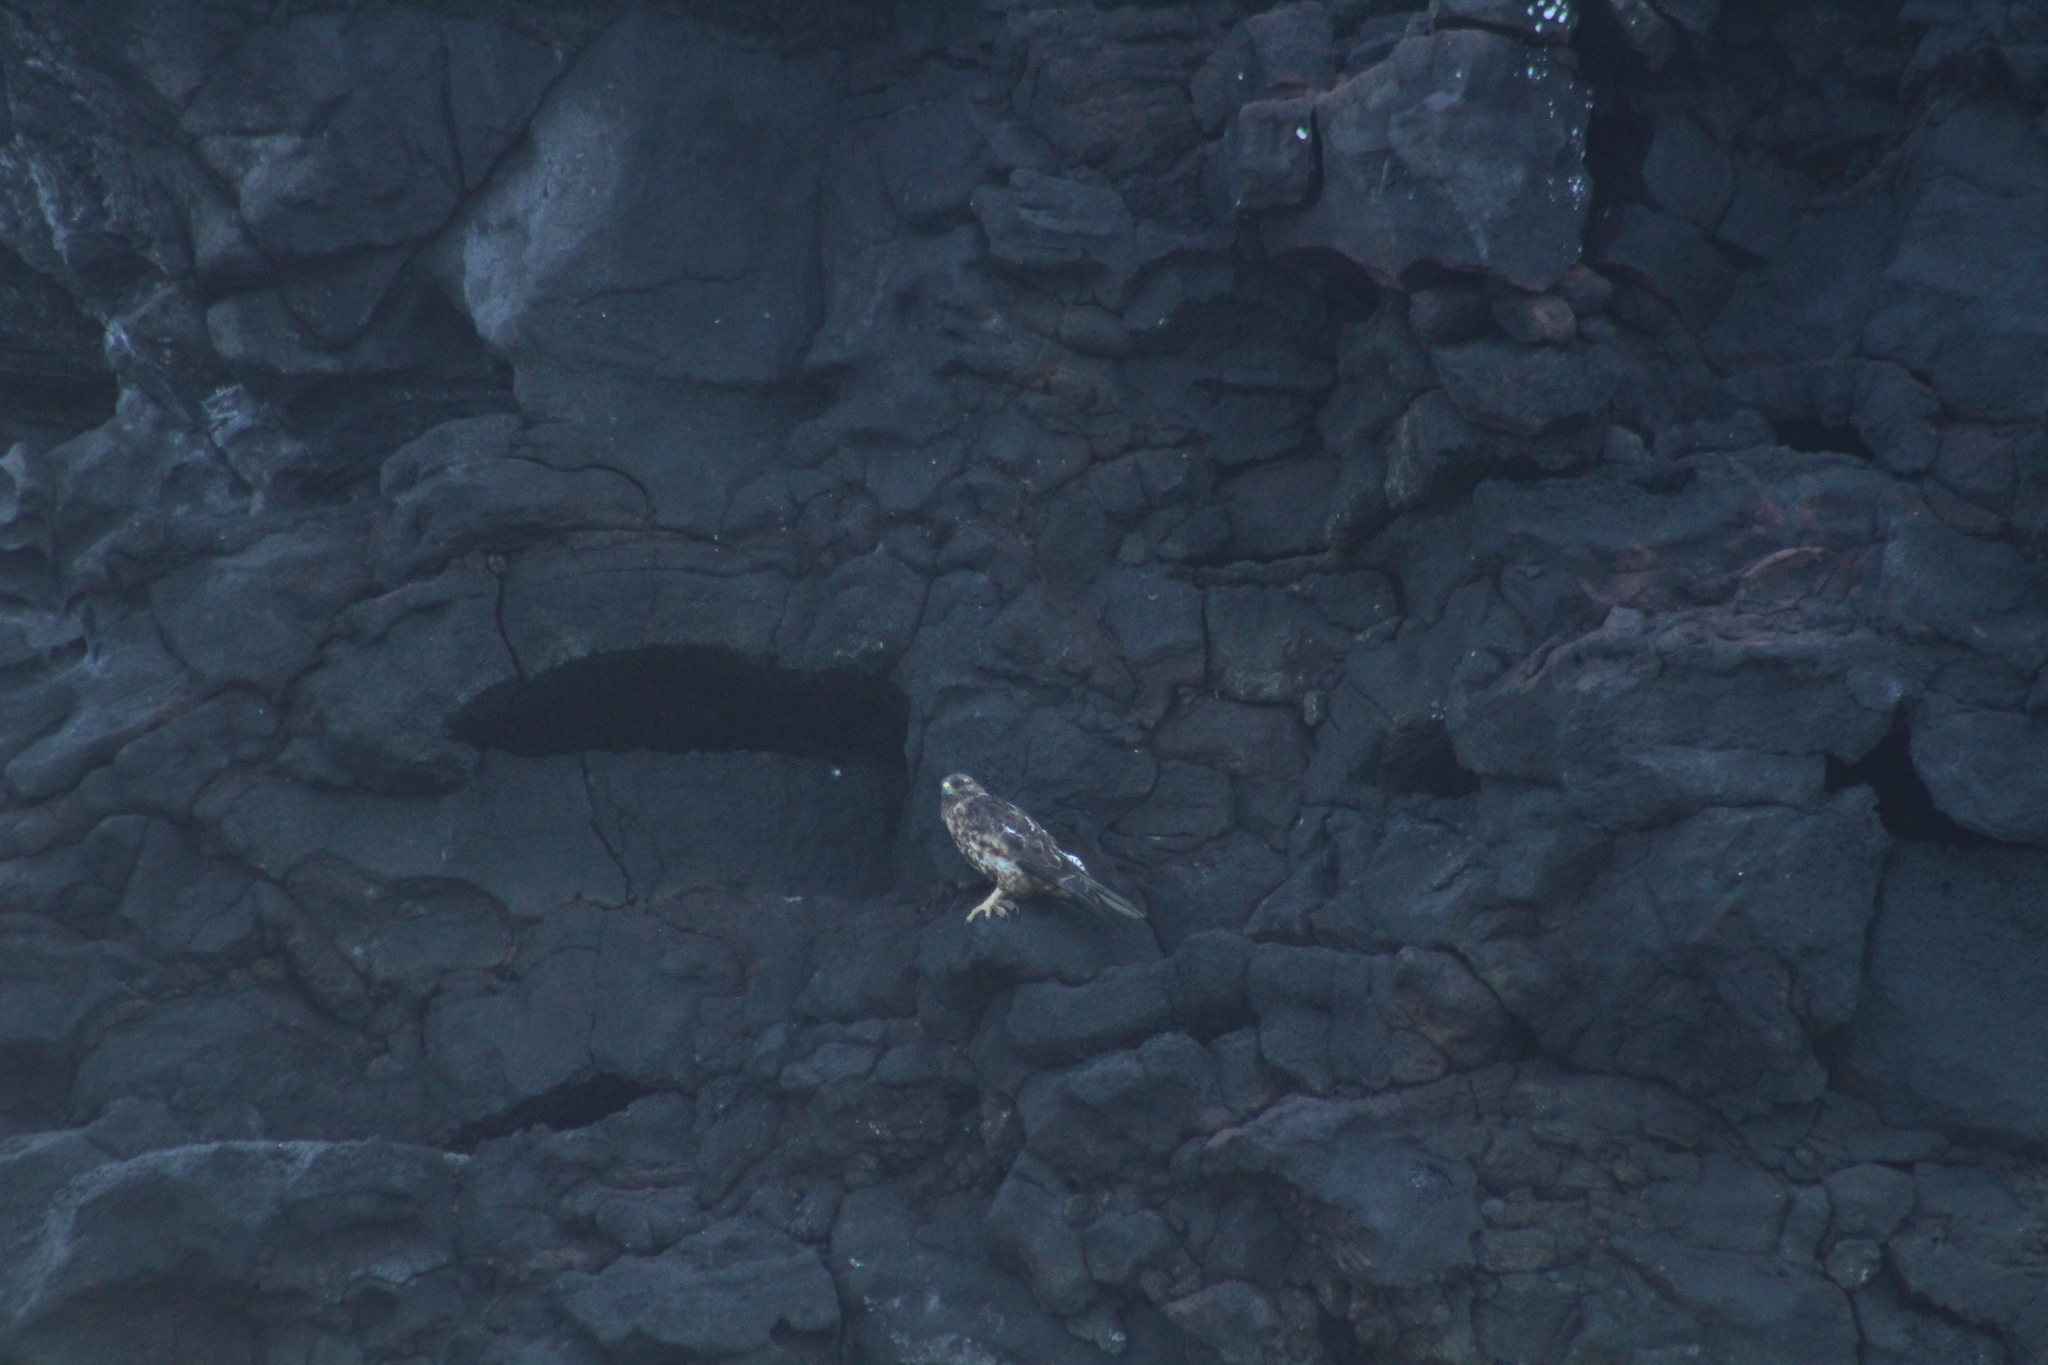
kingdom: Animalia
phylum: Chordata
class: Aves
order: Accipitriformes
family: Accipitridae
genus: Buteo
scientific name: Buteo galapagoensis
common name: Galapagos hawk
